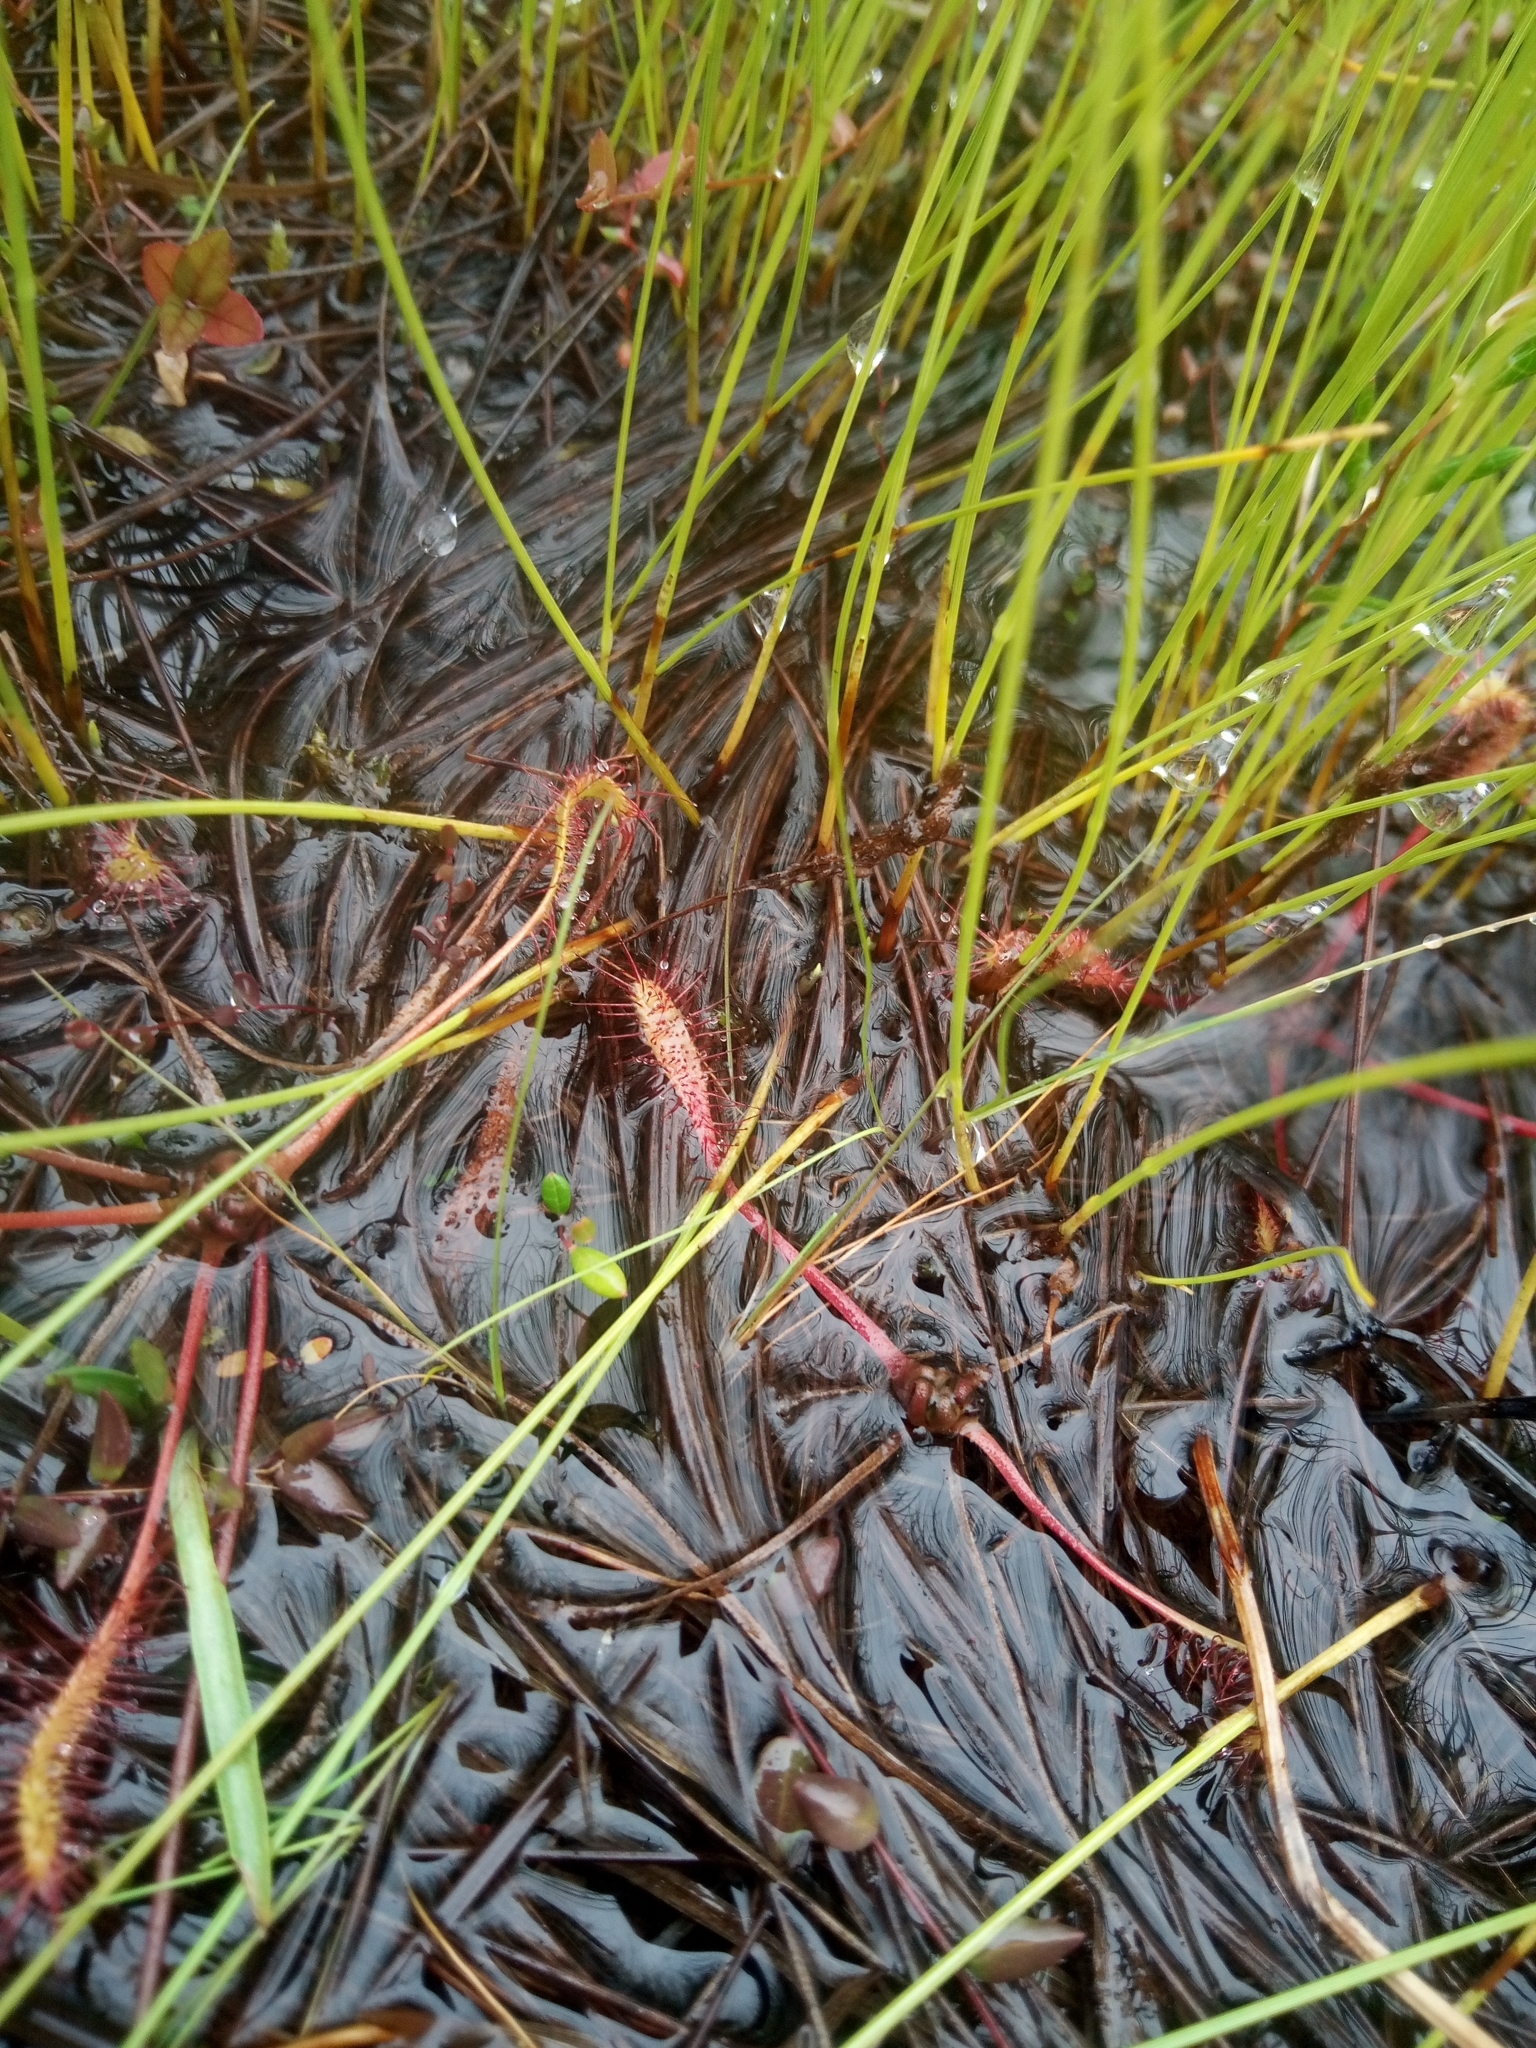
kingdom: Plantae
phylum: Tracheophyta
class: Magnoliopsida
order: Caryophyllales
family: Droseraceae
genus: Drosera
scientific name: Drosera anglica
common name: Great sundew
